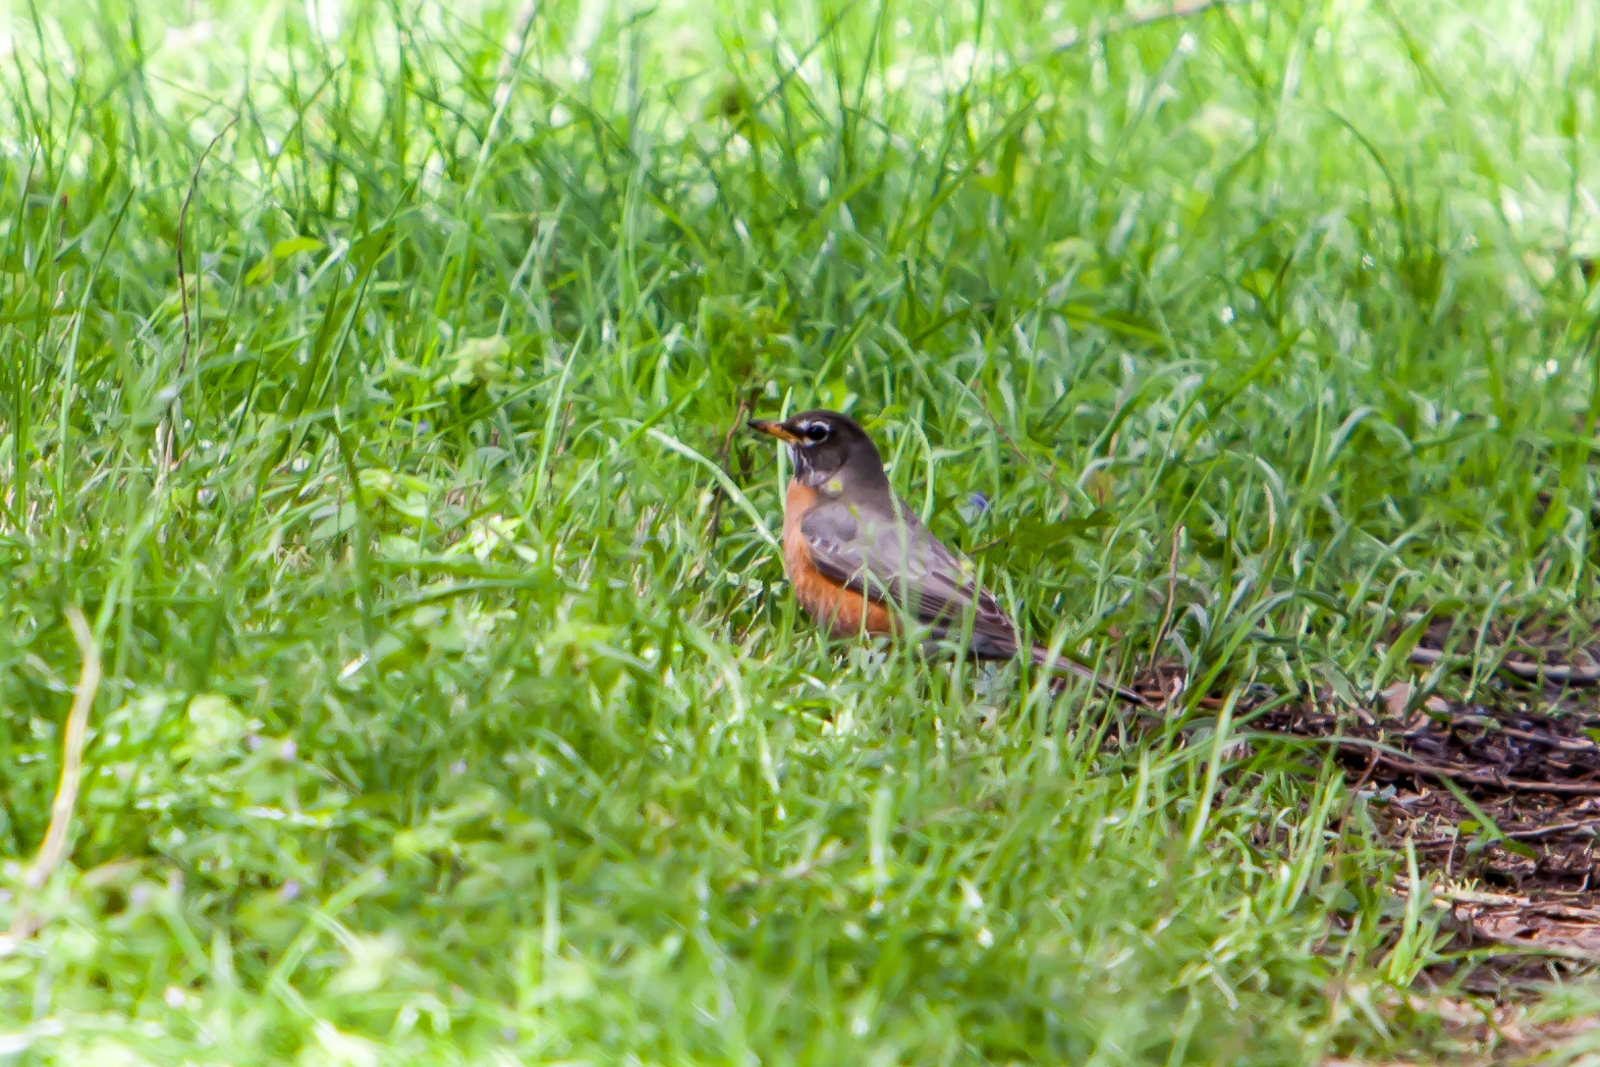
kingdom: Animalia
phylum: Chordata
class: Aves
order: Passeriformes
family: Turdidae
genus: Turdus
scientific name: Turdus migratorius
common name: American robin
